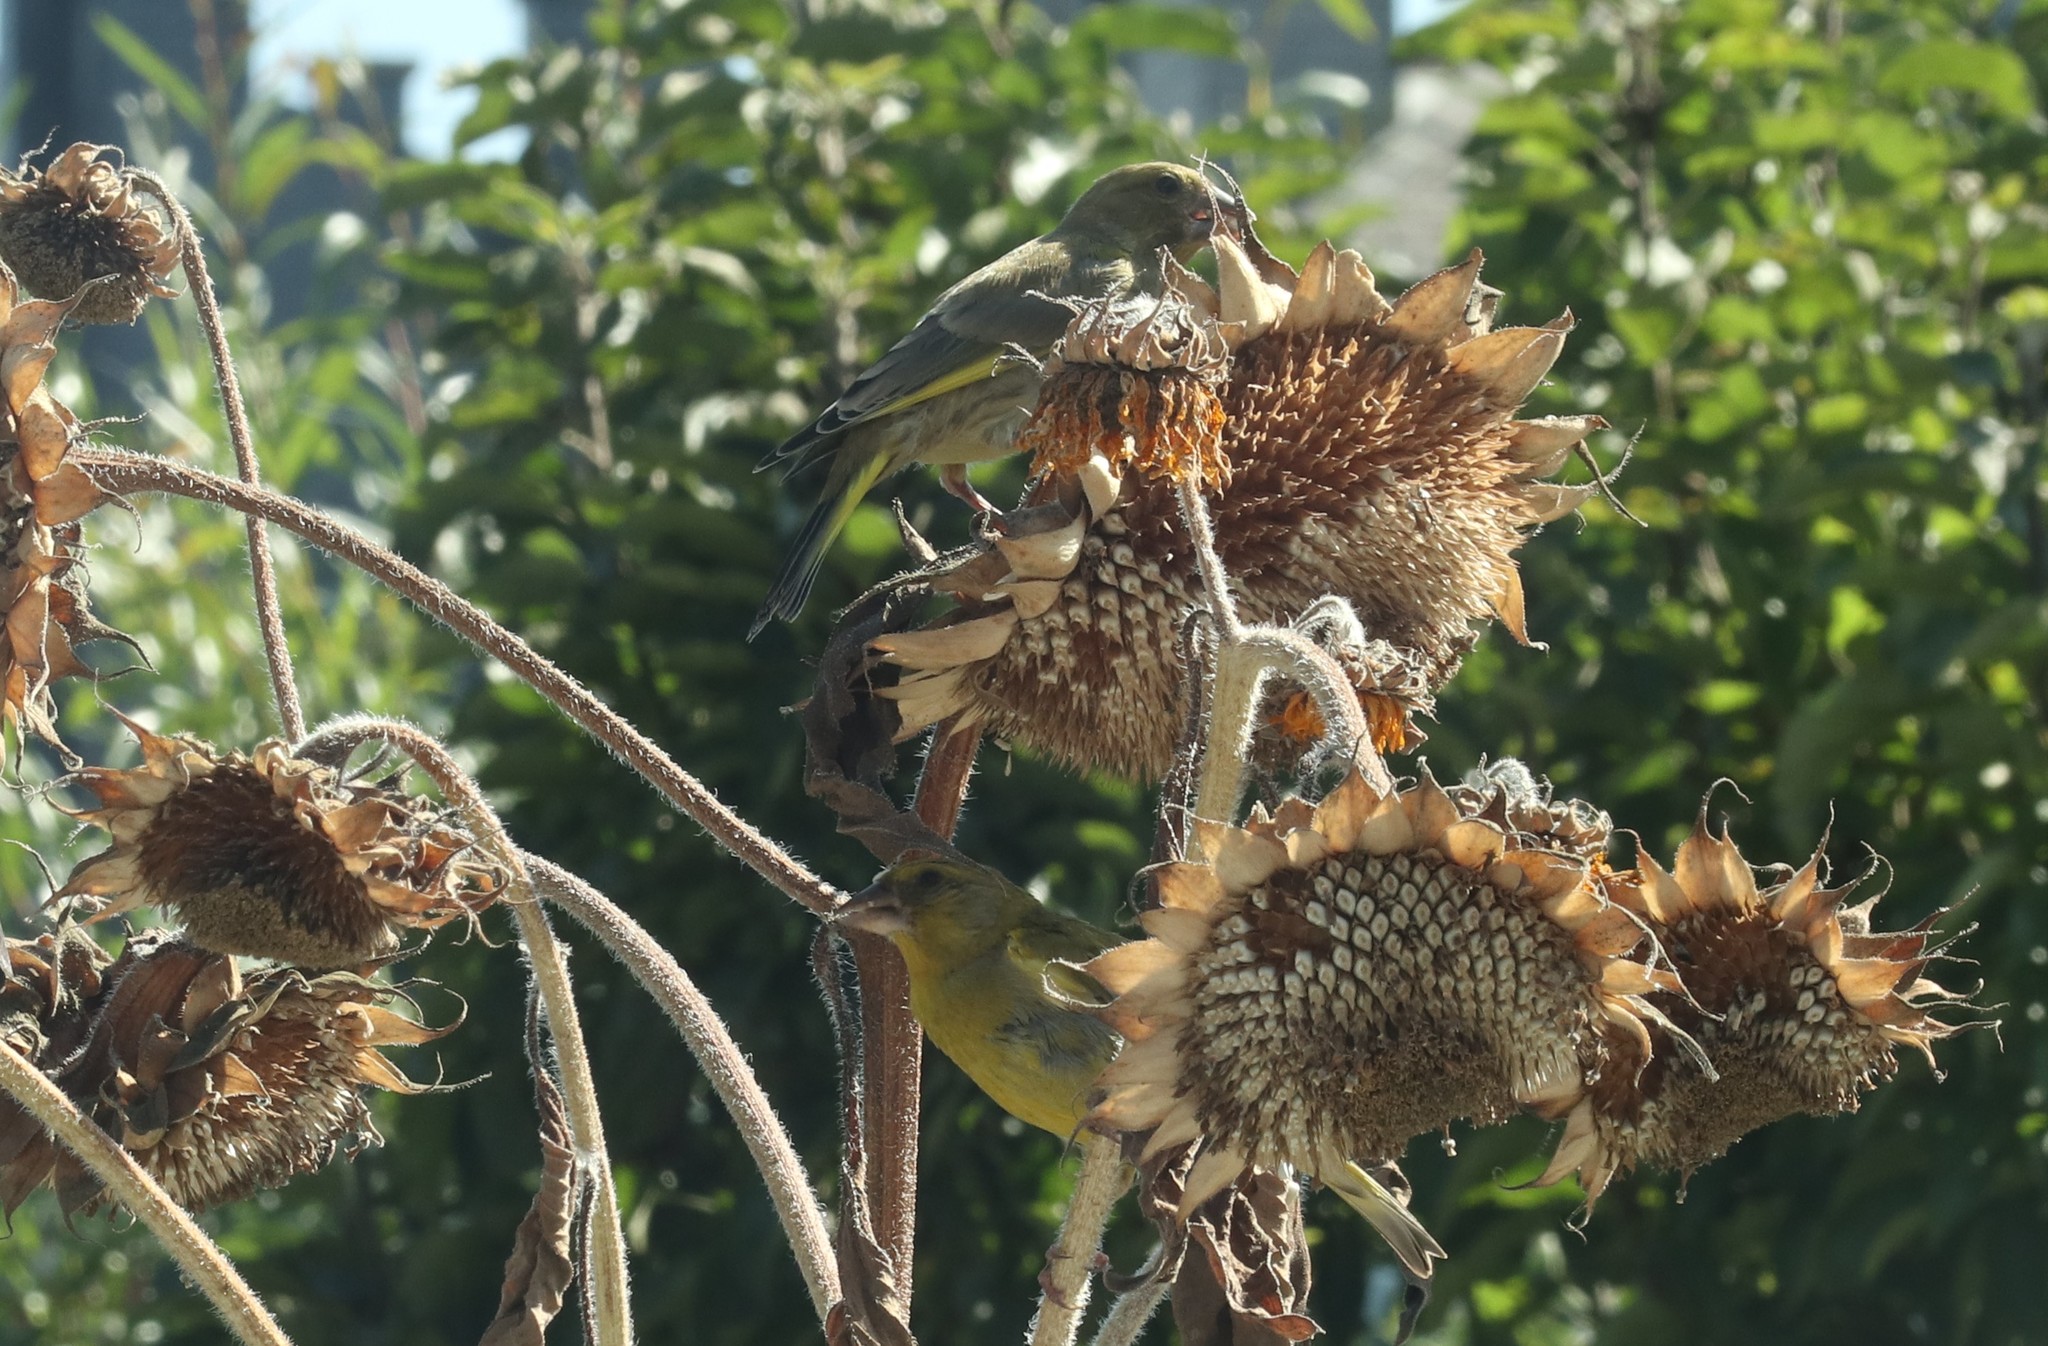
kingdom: Plantae
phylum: Tracheophyta
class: Liliopsida
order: Poales
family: Poaceae
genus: Chloris
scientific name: Chloris chloris
